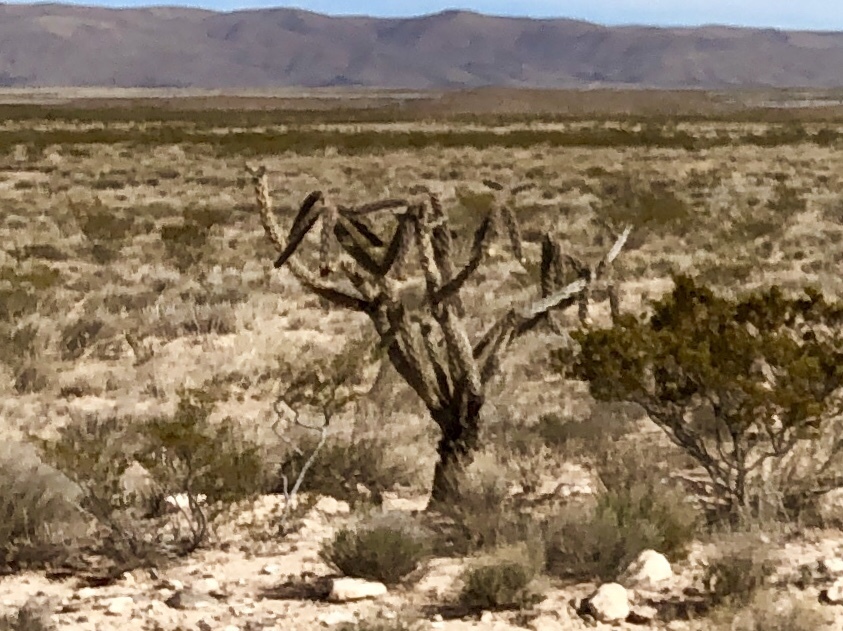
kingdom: Plantae
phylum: Tracheophyta
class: Magnoliopsida
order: Caryophyllales
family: Cactaceae
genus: Cylindropuntia
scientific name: Cylindropuntia imbricata
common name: Candelabrum cactus
